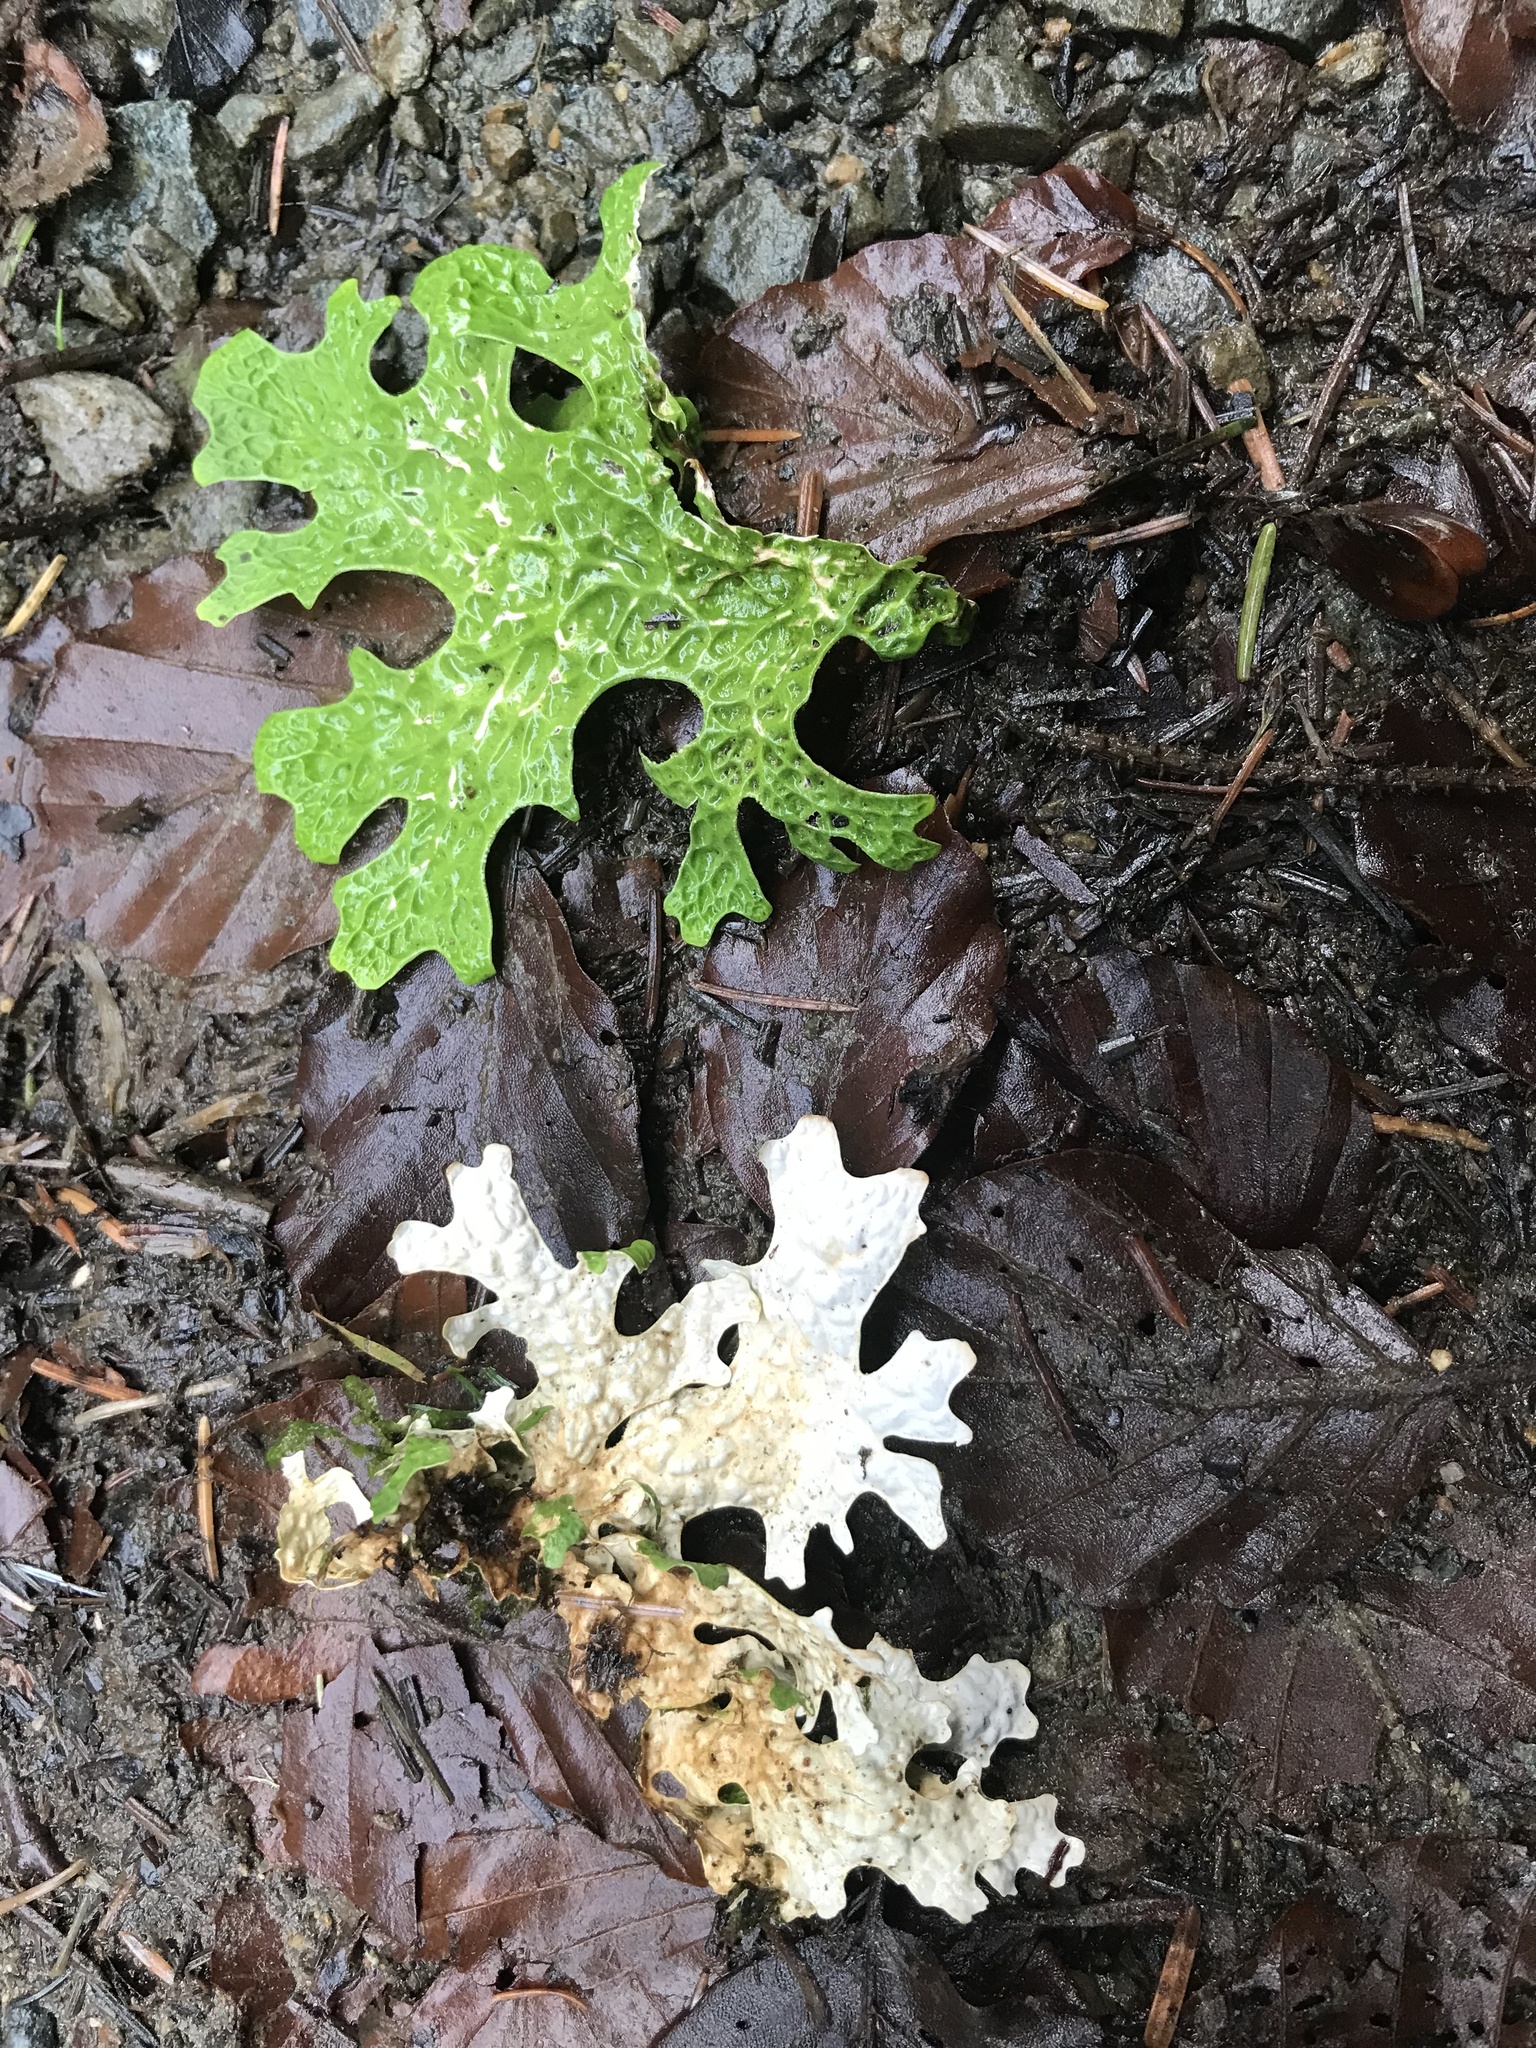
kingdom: Fungi
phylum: Ascomycota
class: Lecanoromycetes
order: Peltigerales
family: Lobariaceae
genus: Lobaria
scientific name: Lobaria pulmonaria
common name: Lungwort
